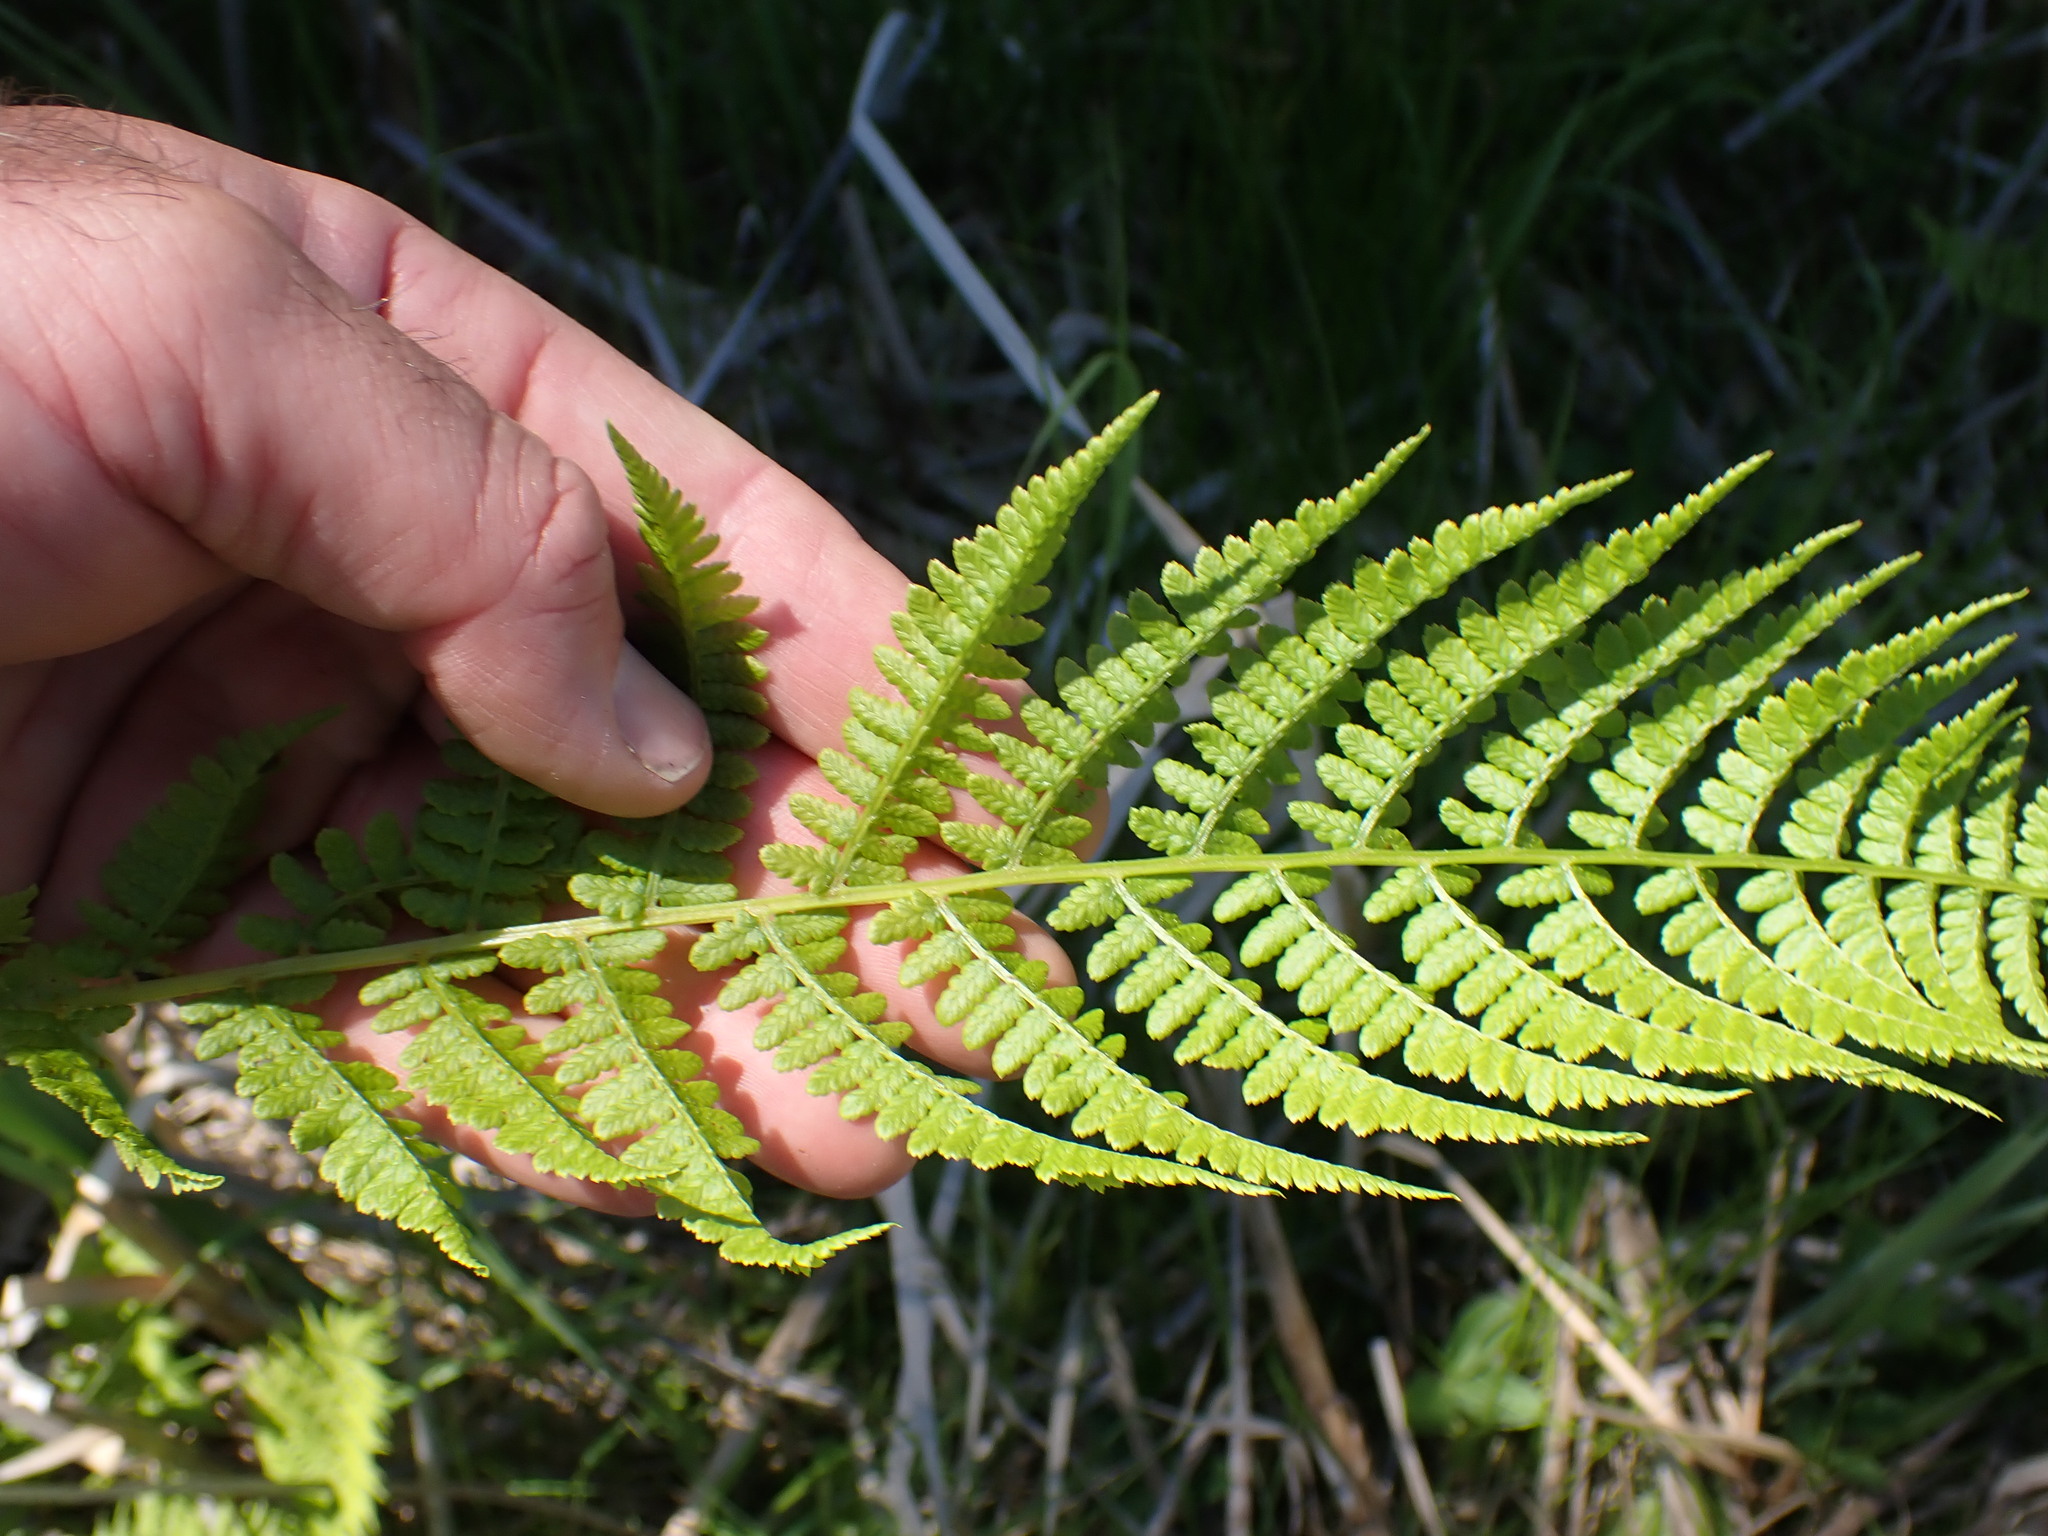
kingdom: Plantae
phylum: Tracheophyta
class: Polypodiopsida
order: Polypodiales
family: Athyriaceae
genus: Athyrium
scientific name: Athyrium filix-femina
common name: Lady fern
